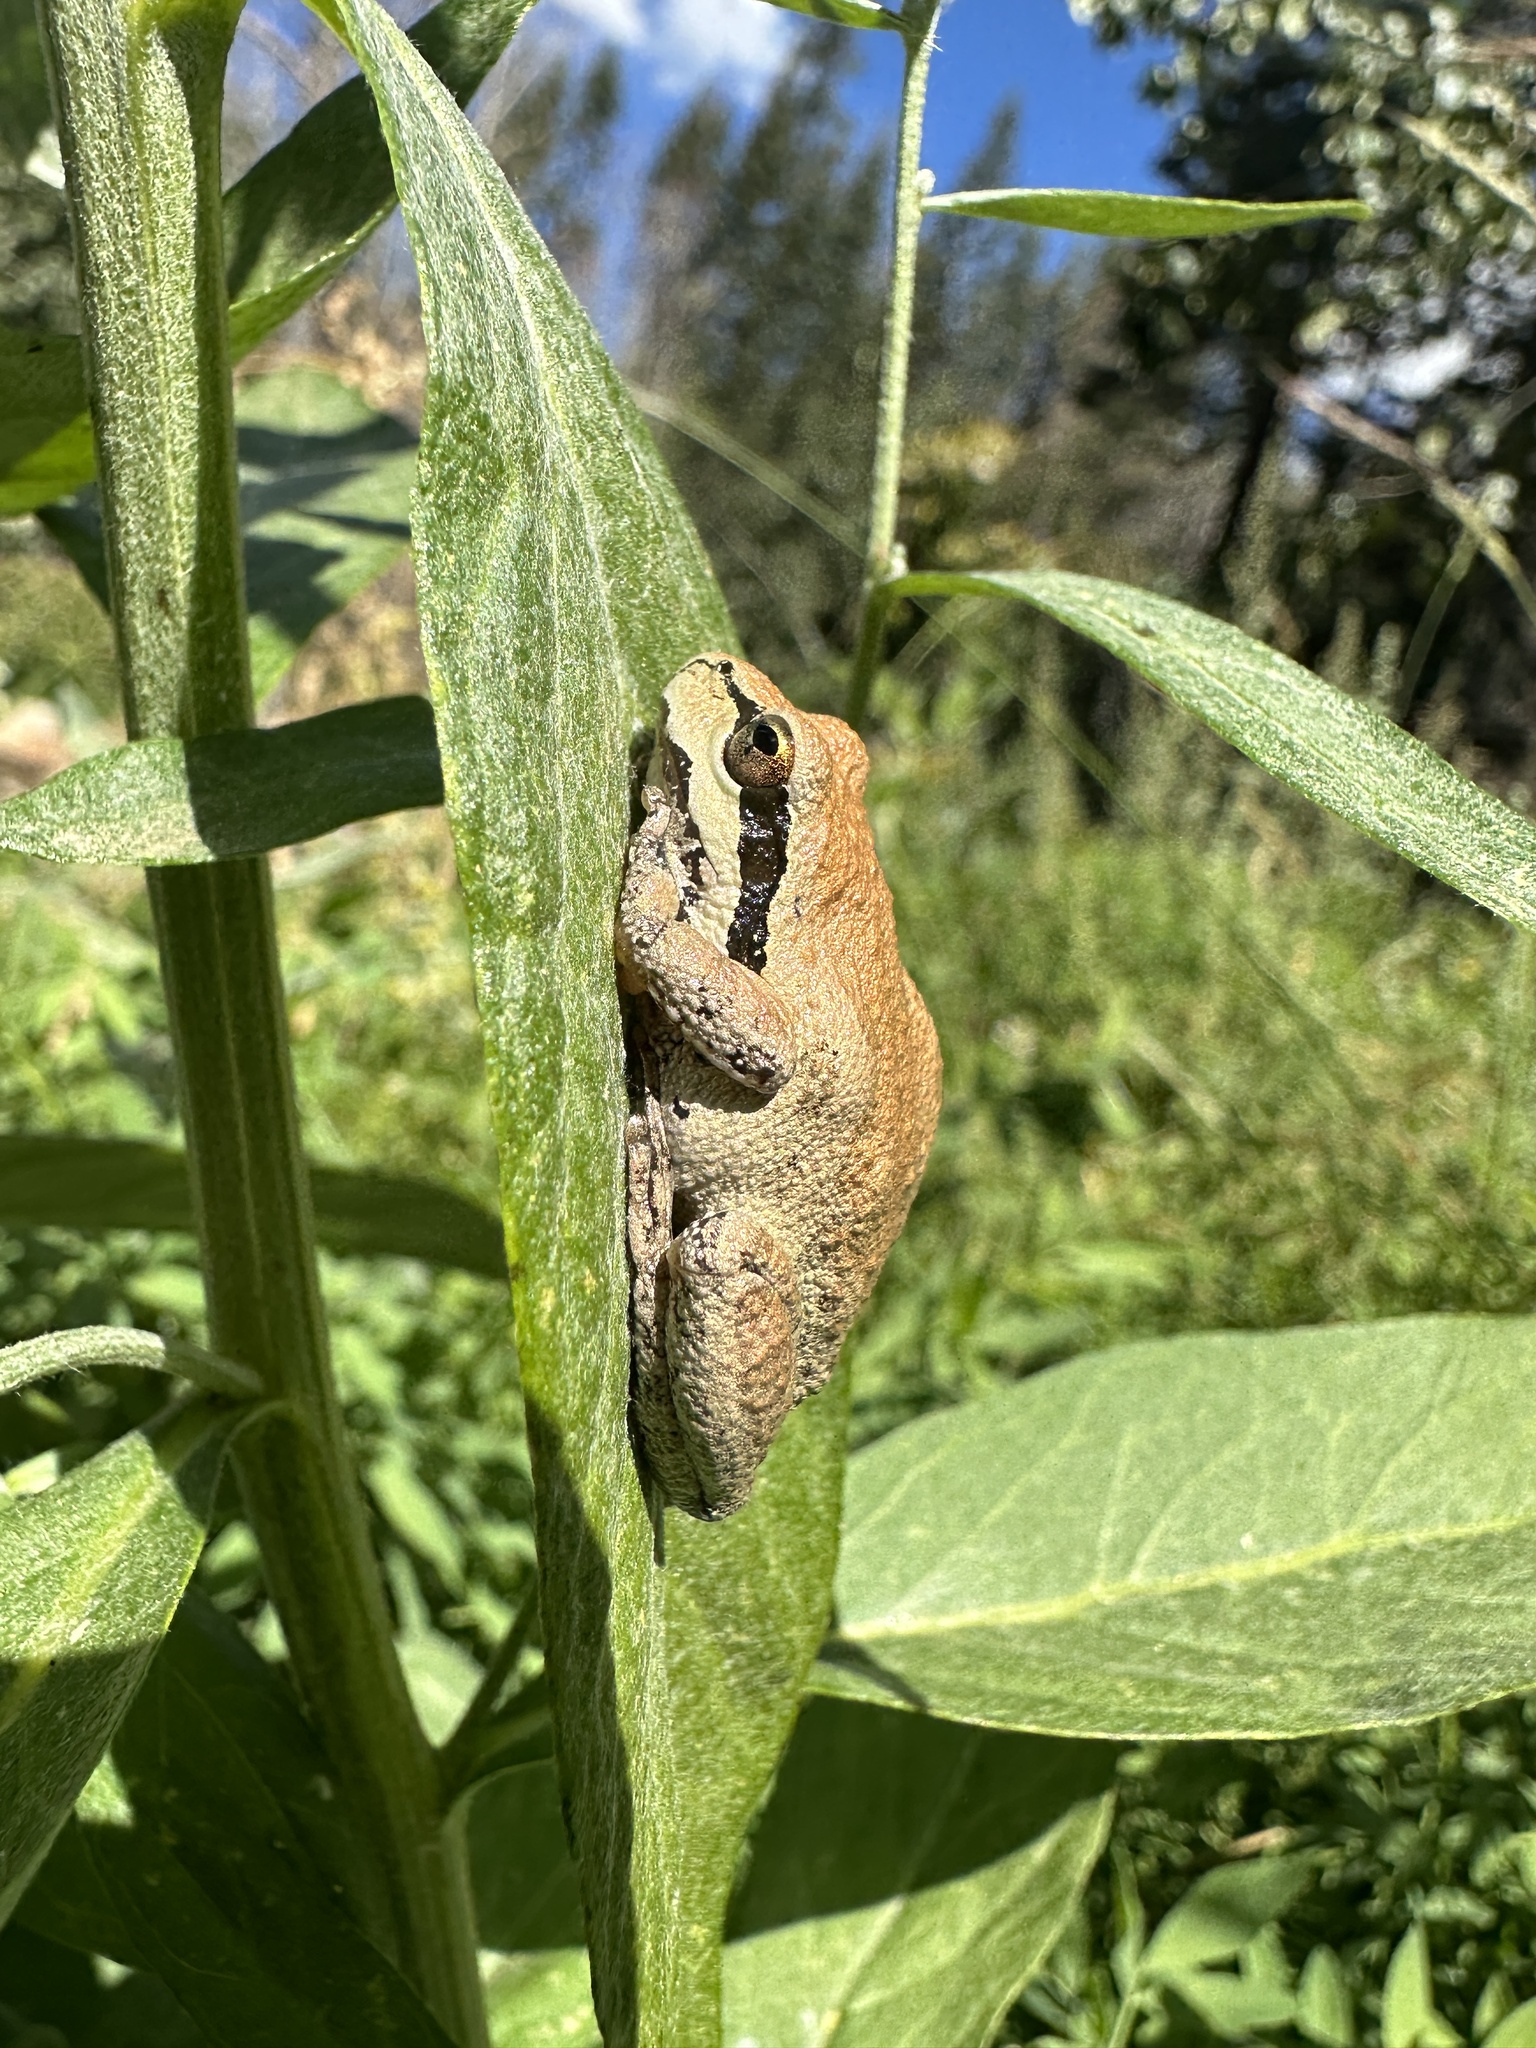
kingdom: Animalia
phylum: Chordata
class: Amphibia
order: Anura
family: Hylidae
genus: Pseudacris
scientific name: Pseudacris regilla
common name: Pacific chorus frog
